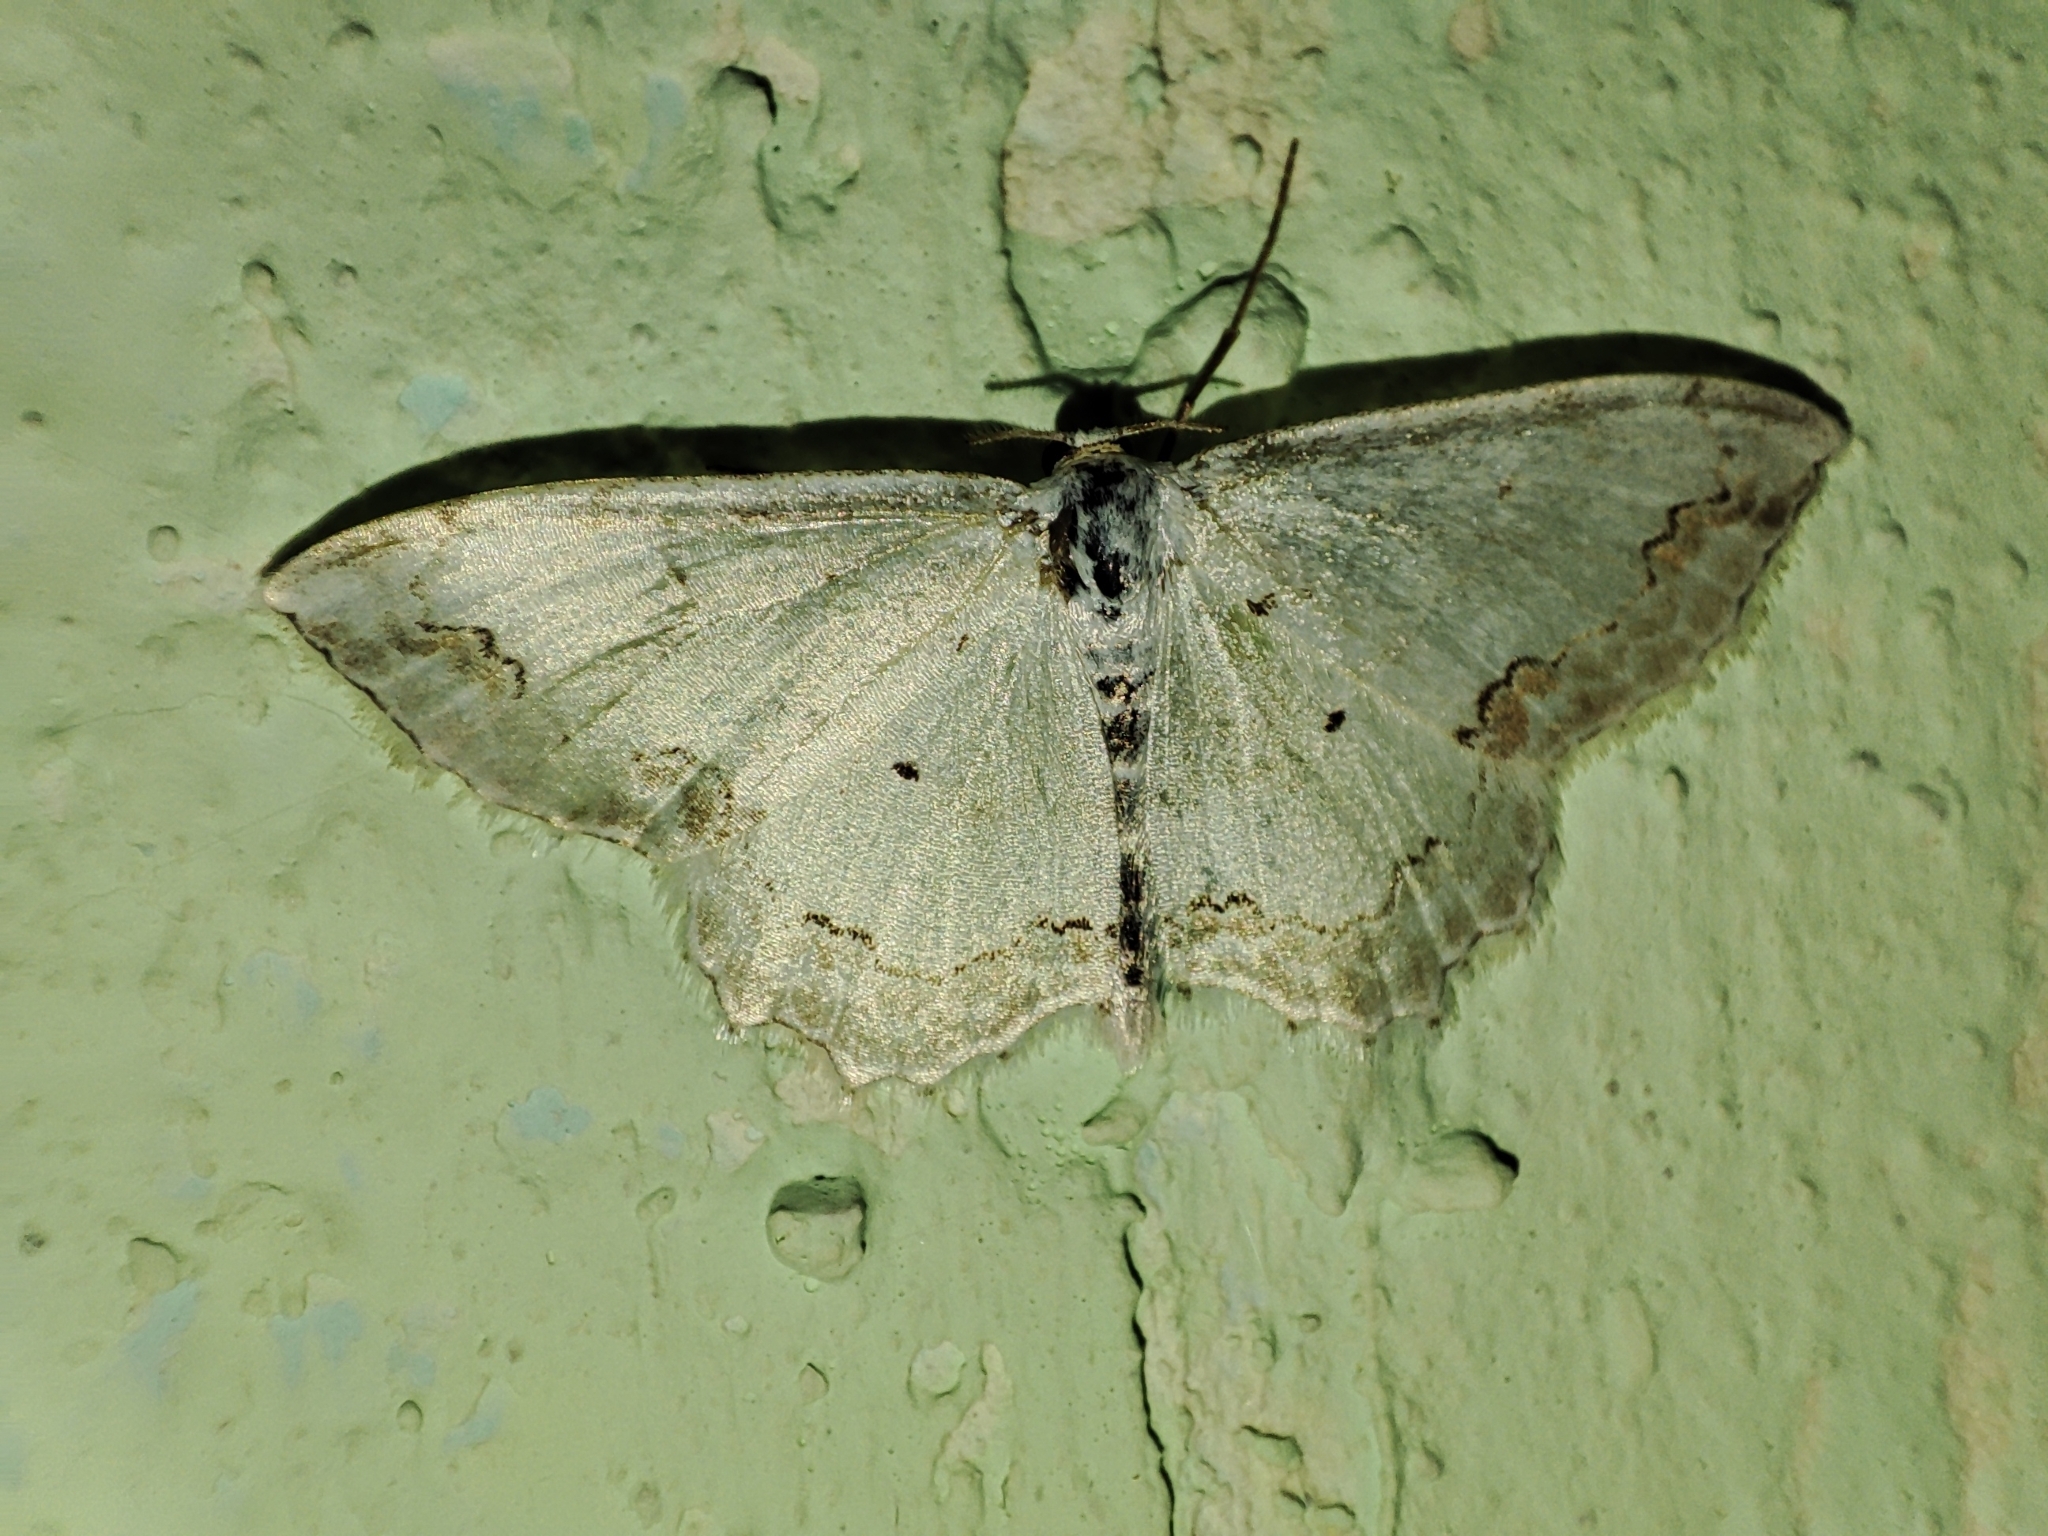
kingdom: Animalia
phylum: Arthropoda
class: Insecta
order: Lepidoptera
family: Geometridae
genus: Scopula
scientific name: Scopula ornata
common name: Lace border
